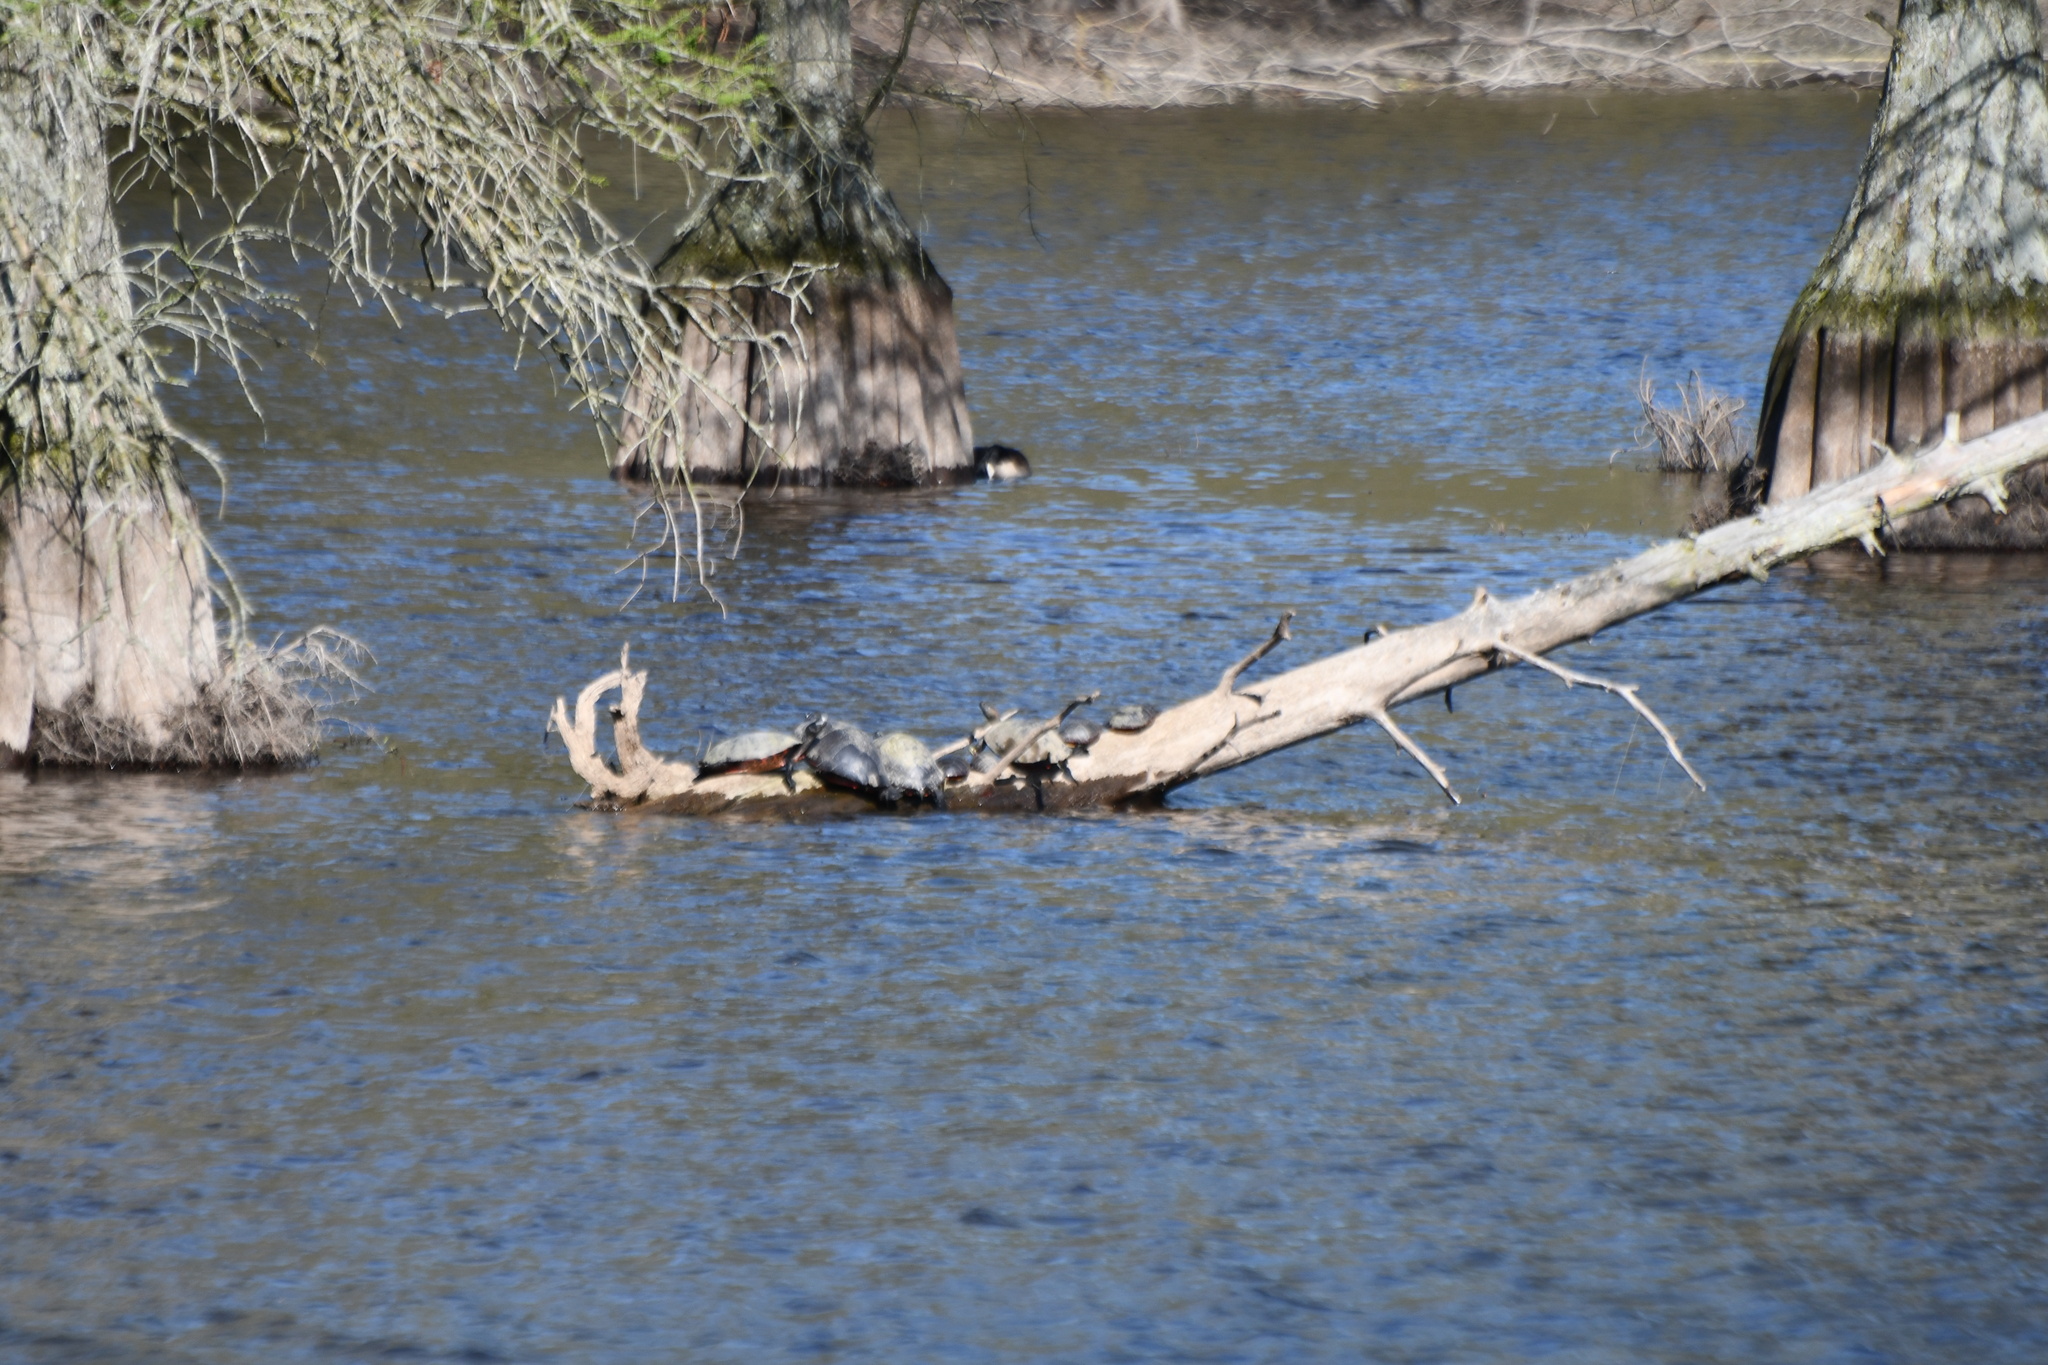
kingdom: Animalia
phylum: Chordata
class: Testudines
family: Emydidae
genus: Chrysemys
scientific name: Chrysemys picta
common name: Painted turtle
